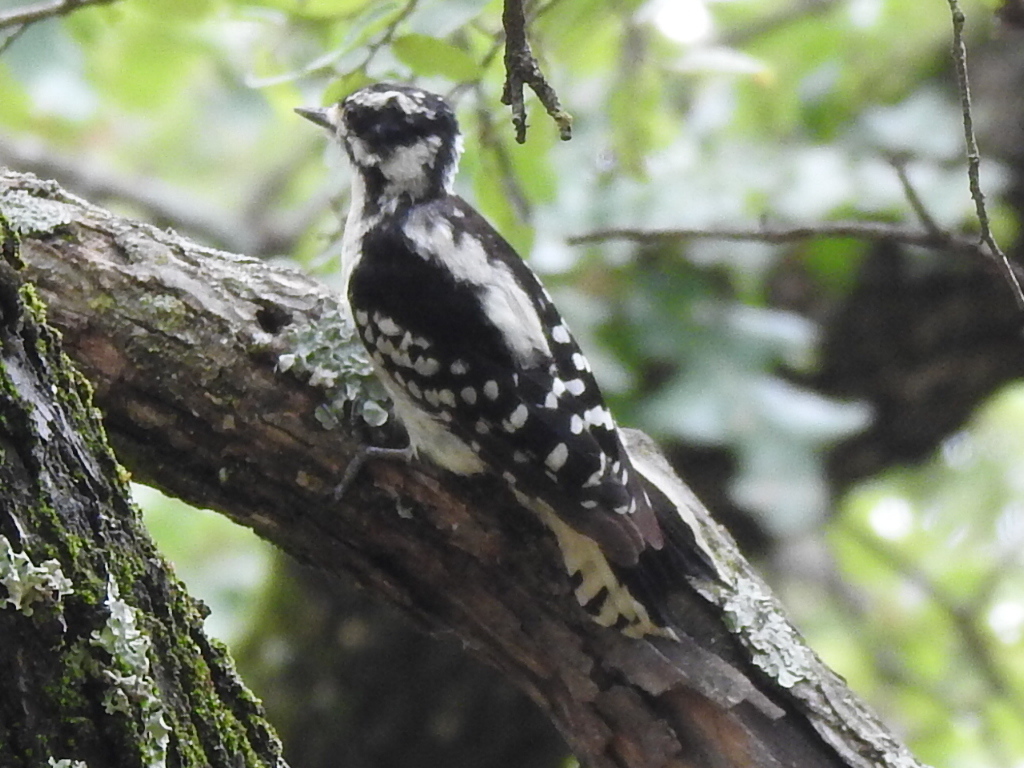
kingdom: Animalia
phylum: Chordata
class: Aves
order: Piciformes
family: Picidae
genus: Dryobates
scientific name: Dryobates pubescens
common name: Downy woodpecker
